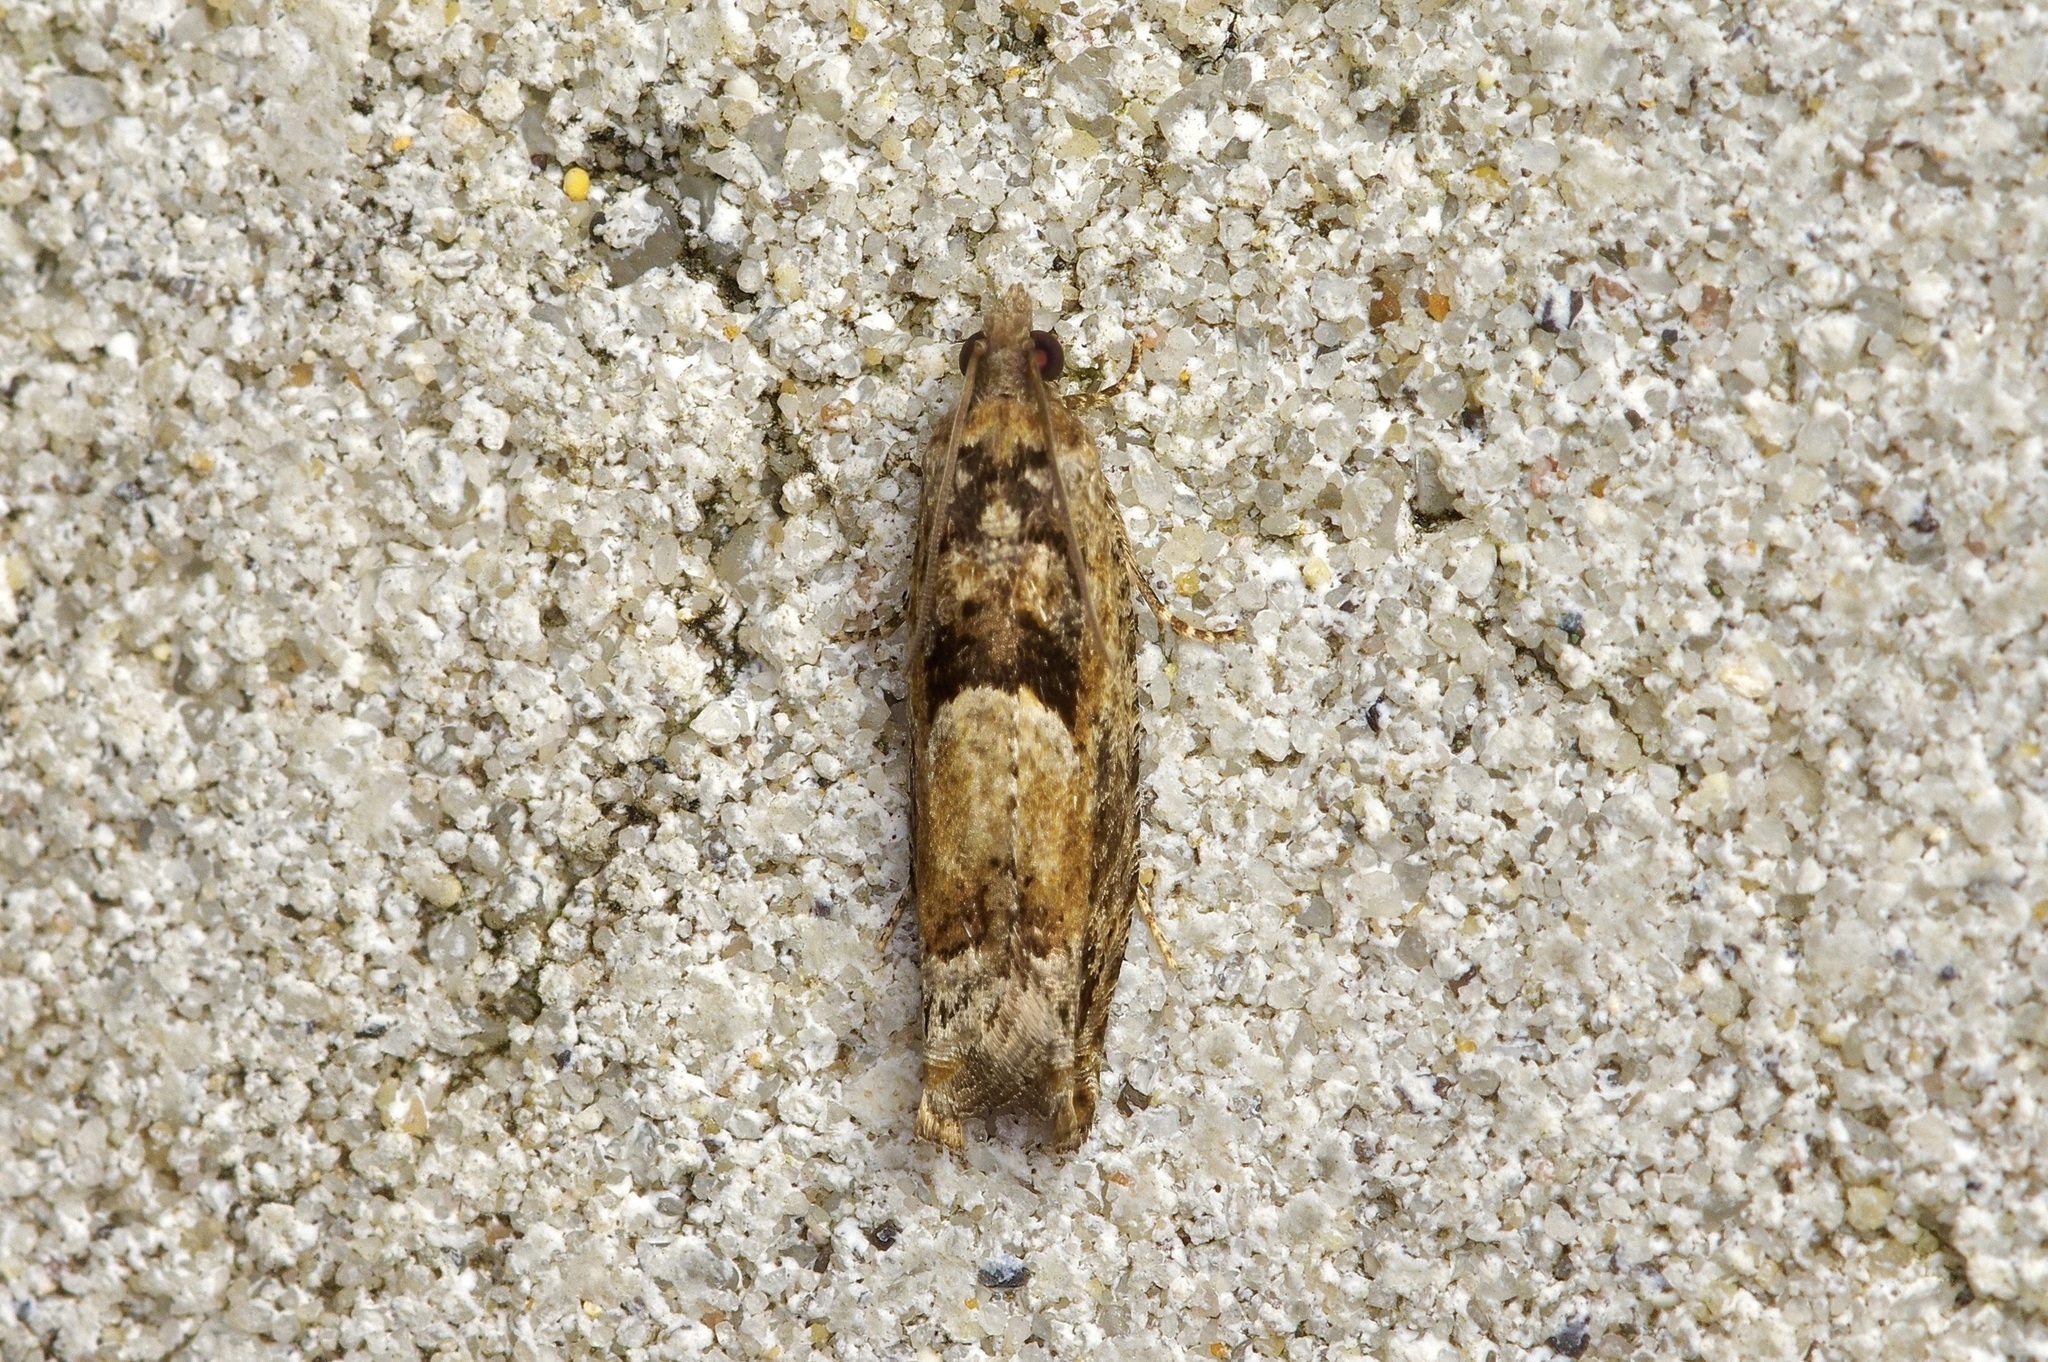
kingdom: Animalia
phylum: Arthropoda
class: Insecta
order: Lepidoptera
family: Tortricidae
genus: Pseudexentera
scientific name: Pseudexentera hodsoni
